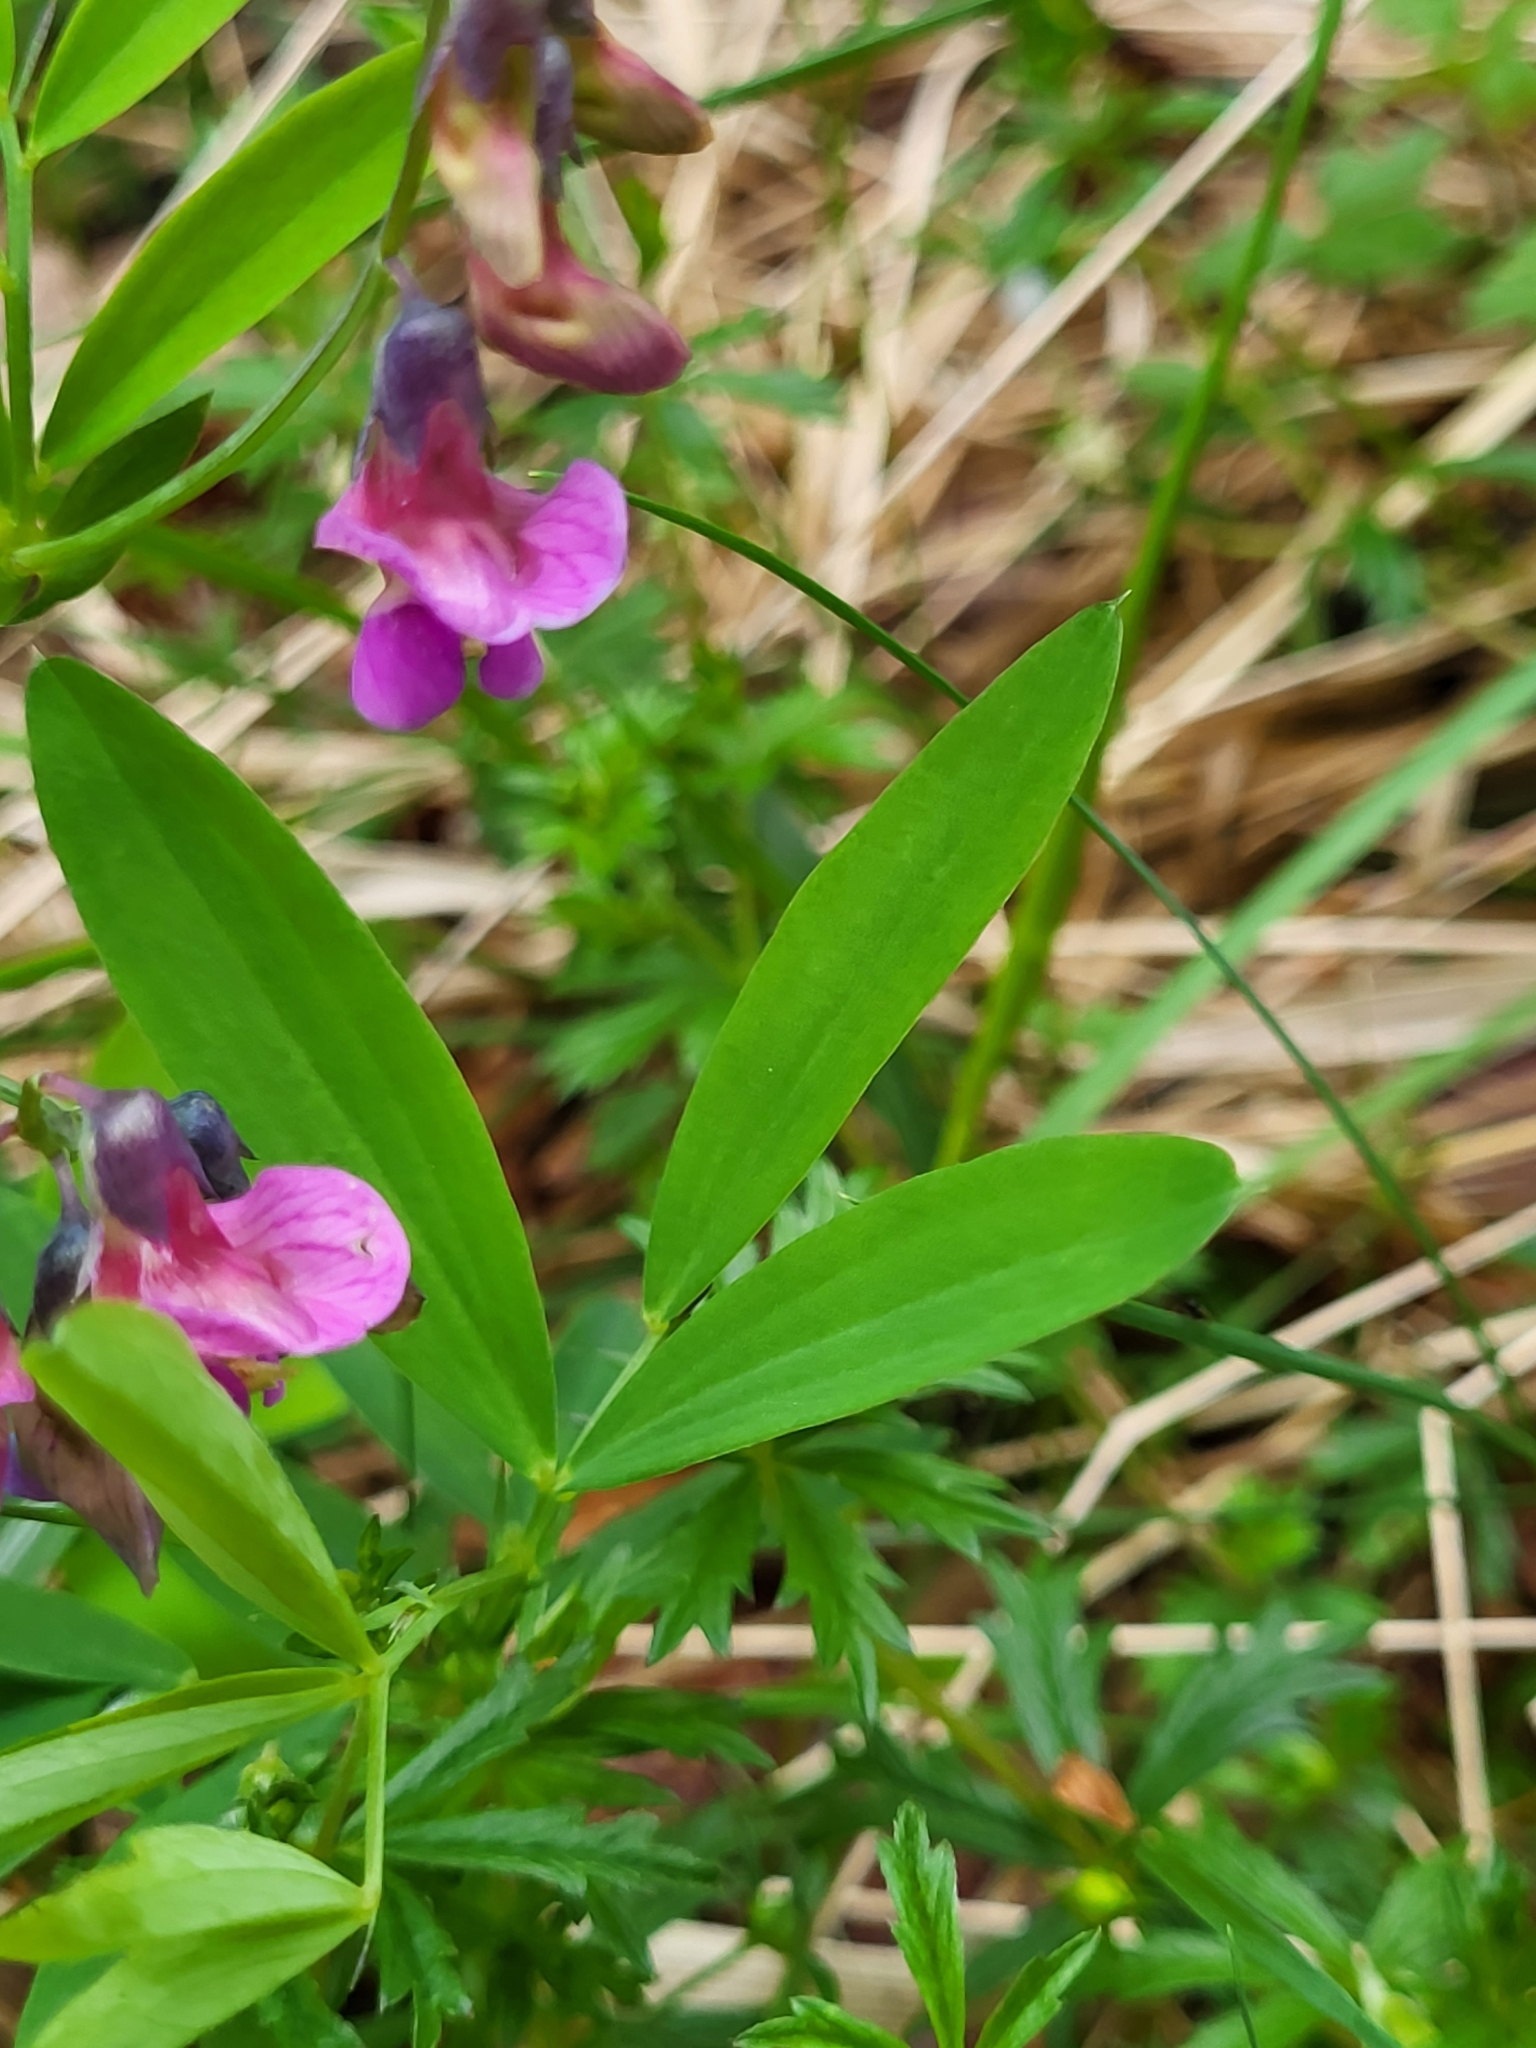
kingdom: Plantae
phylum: Tracheophyta
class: Magnoliopsida
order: Fabales
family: Fabaceae
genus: Lathyrus
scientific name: Lathyrus linifolius
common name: Bitter-vetch
